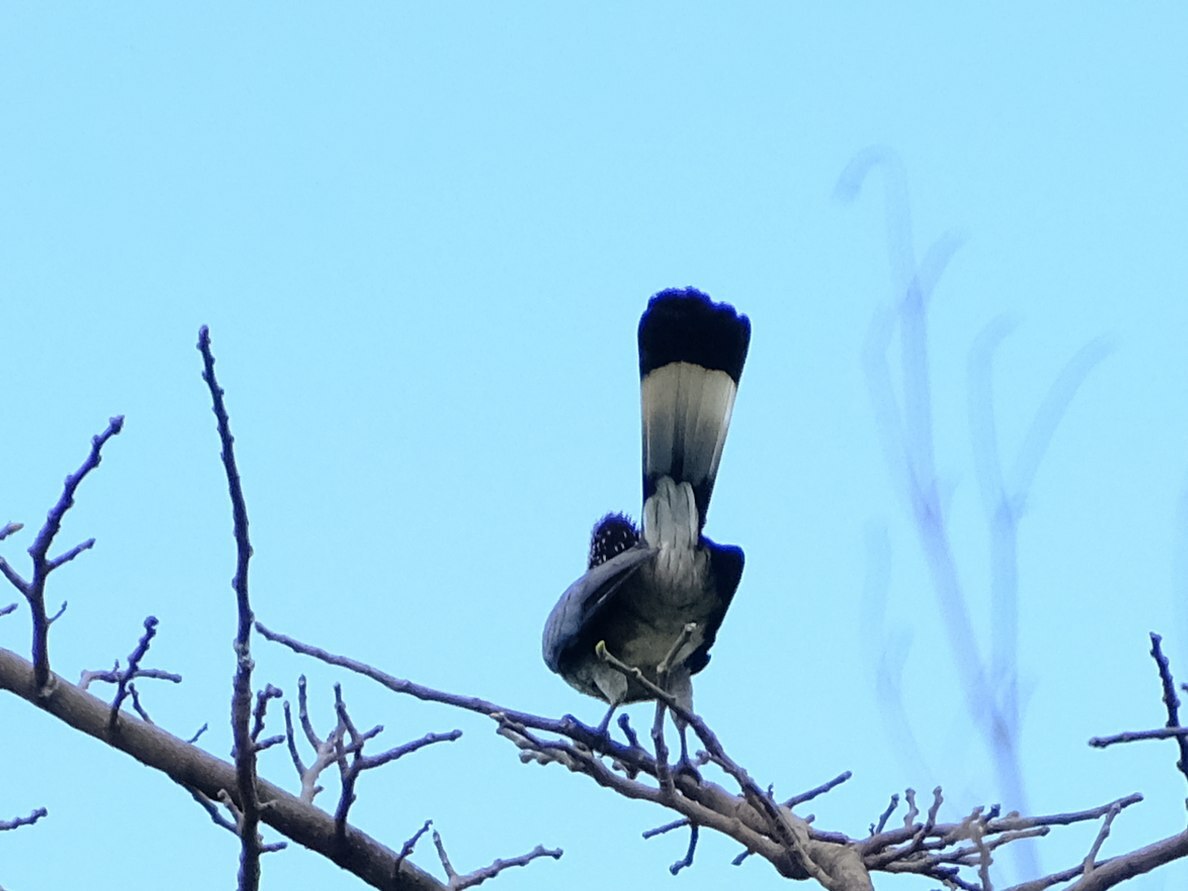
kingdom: Animalia
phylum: Chordata
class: Aves
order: Musophagiformes
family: Musophagidae
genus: Crinifer
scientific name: Crinifer zonurus
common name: Eastern plantain-eater
